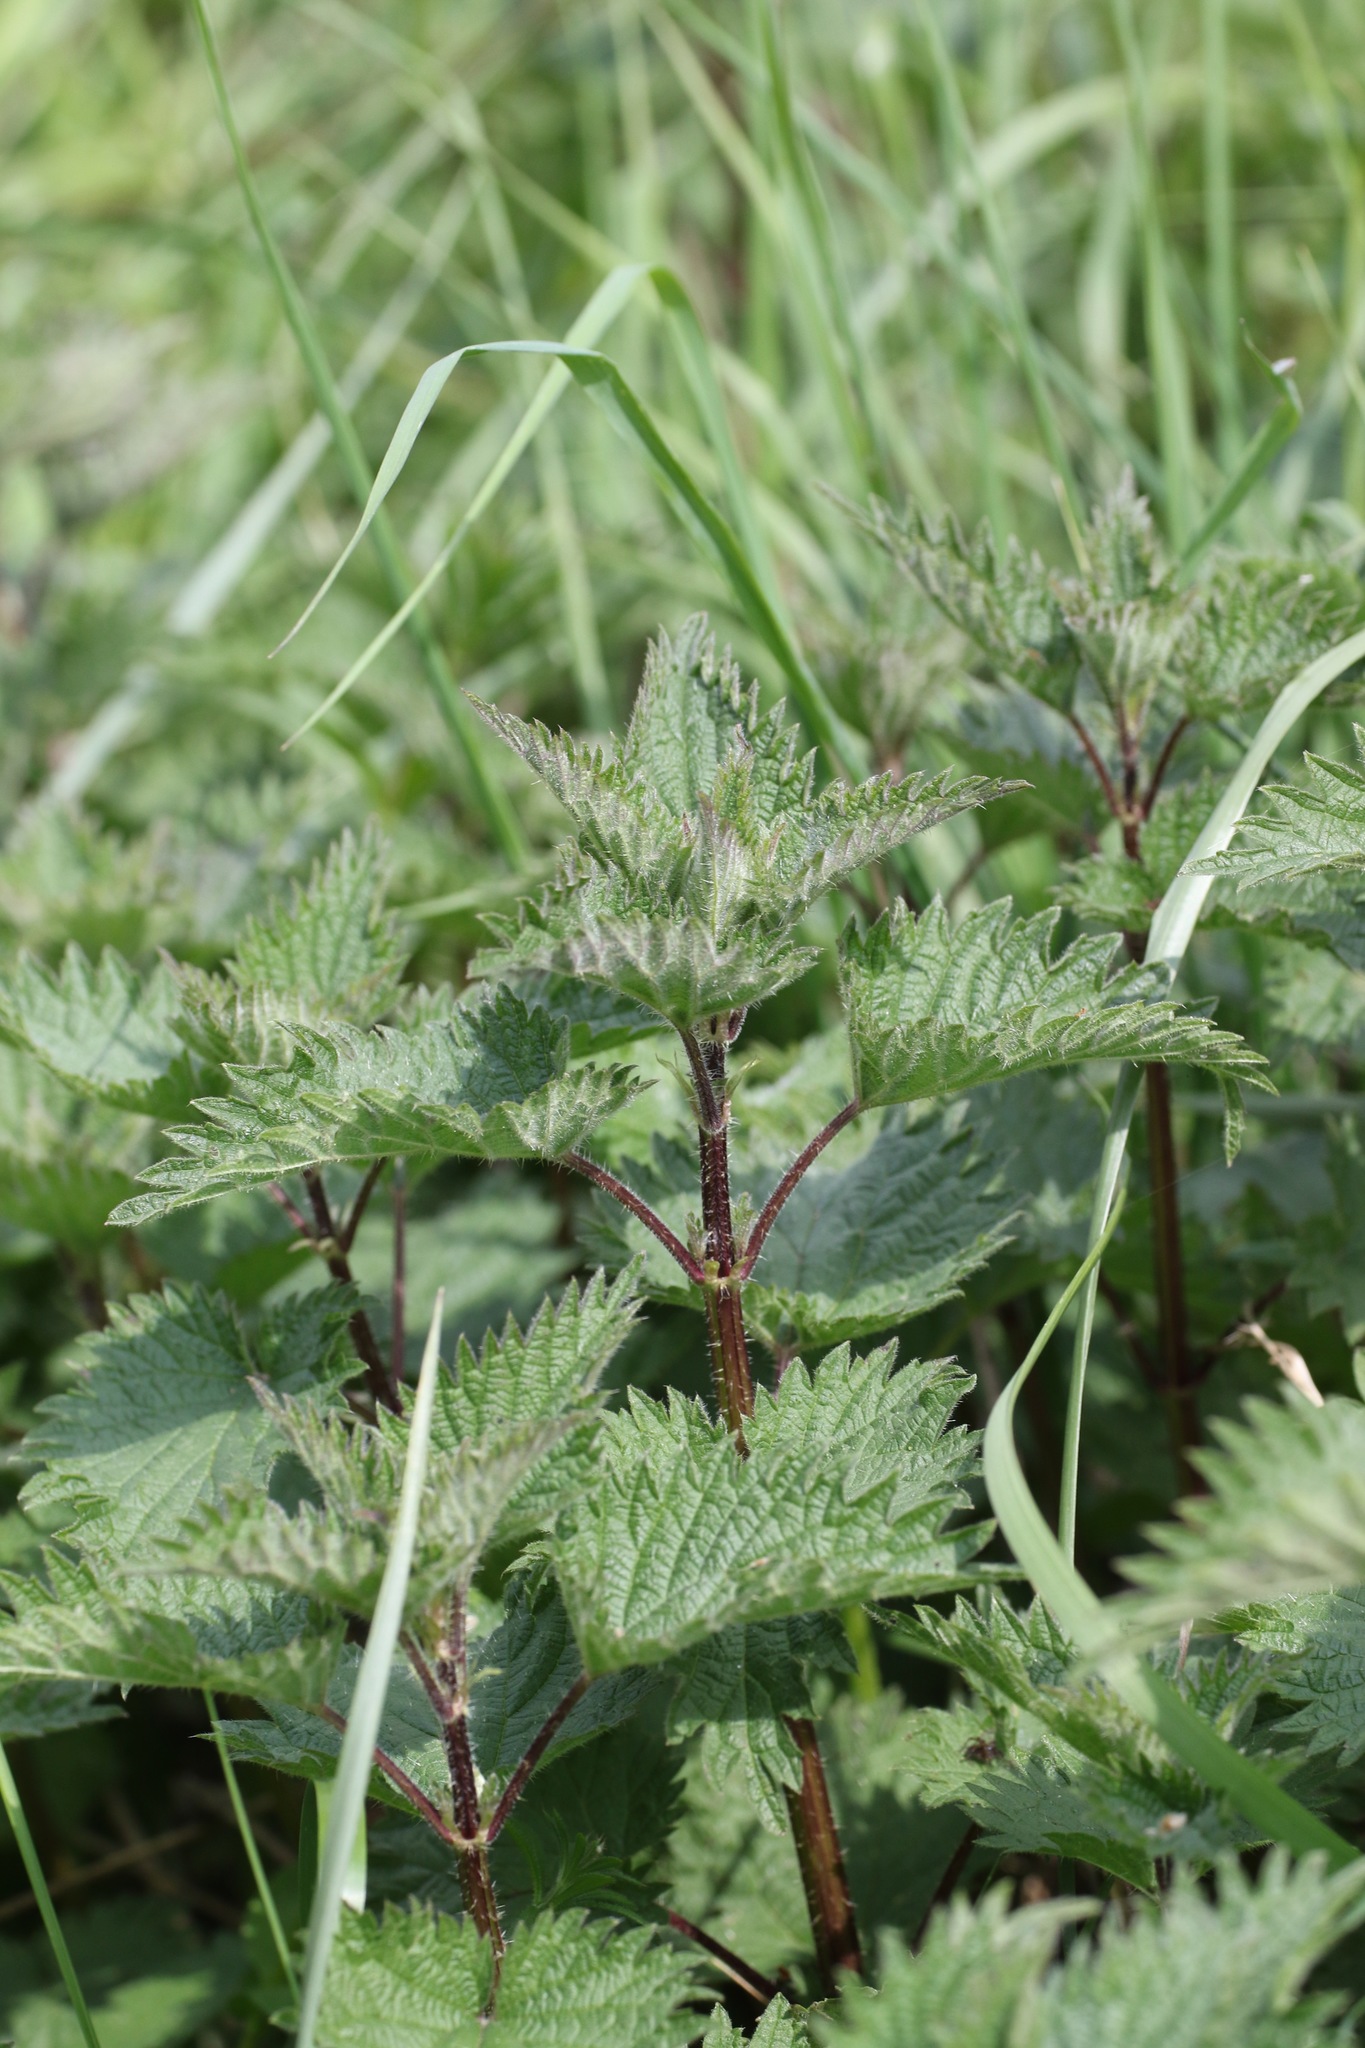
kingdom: Plantae
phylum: Tracheophyta
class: Magnoliopsida
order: Rosales
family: Urticaceae
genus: Urtica
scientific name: Urtica dioica
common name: Common nettle
